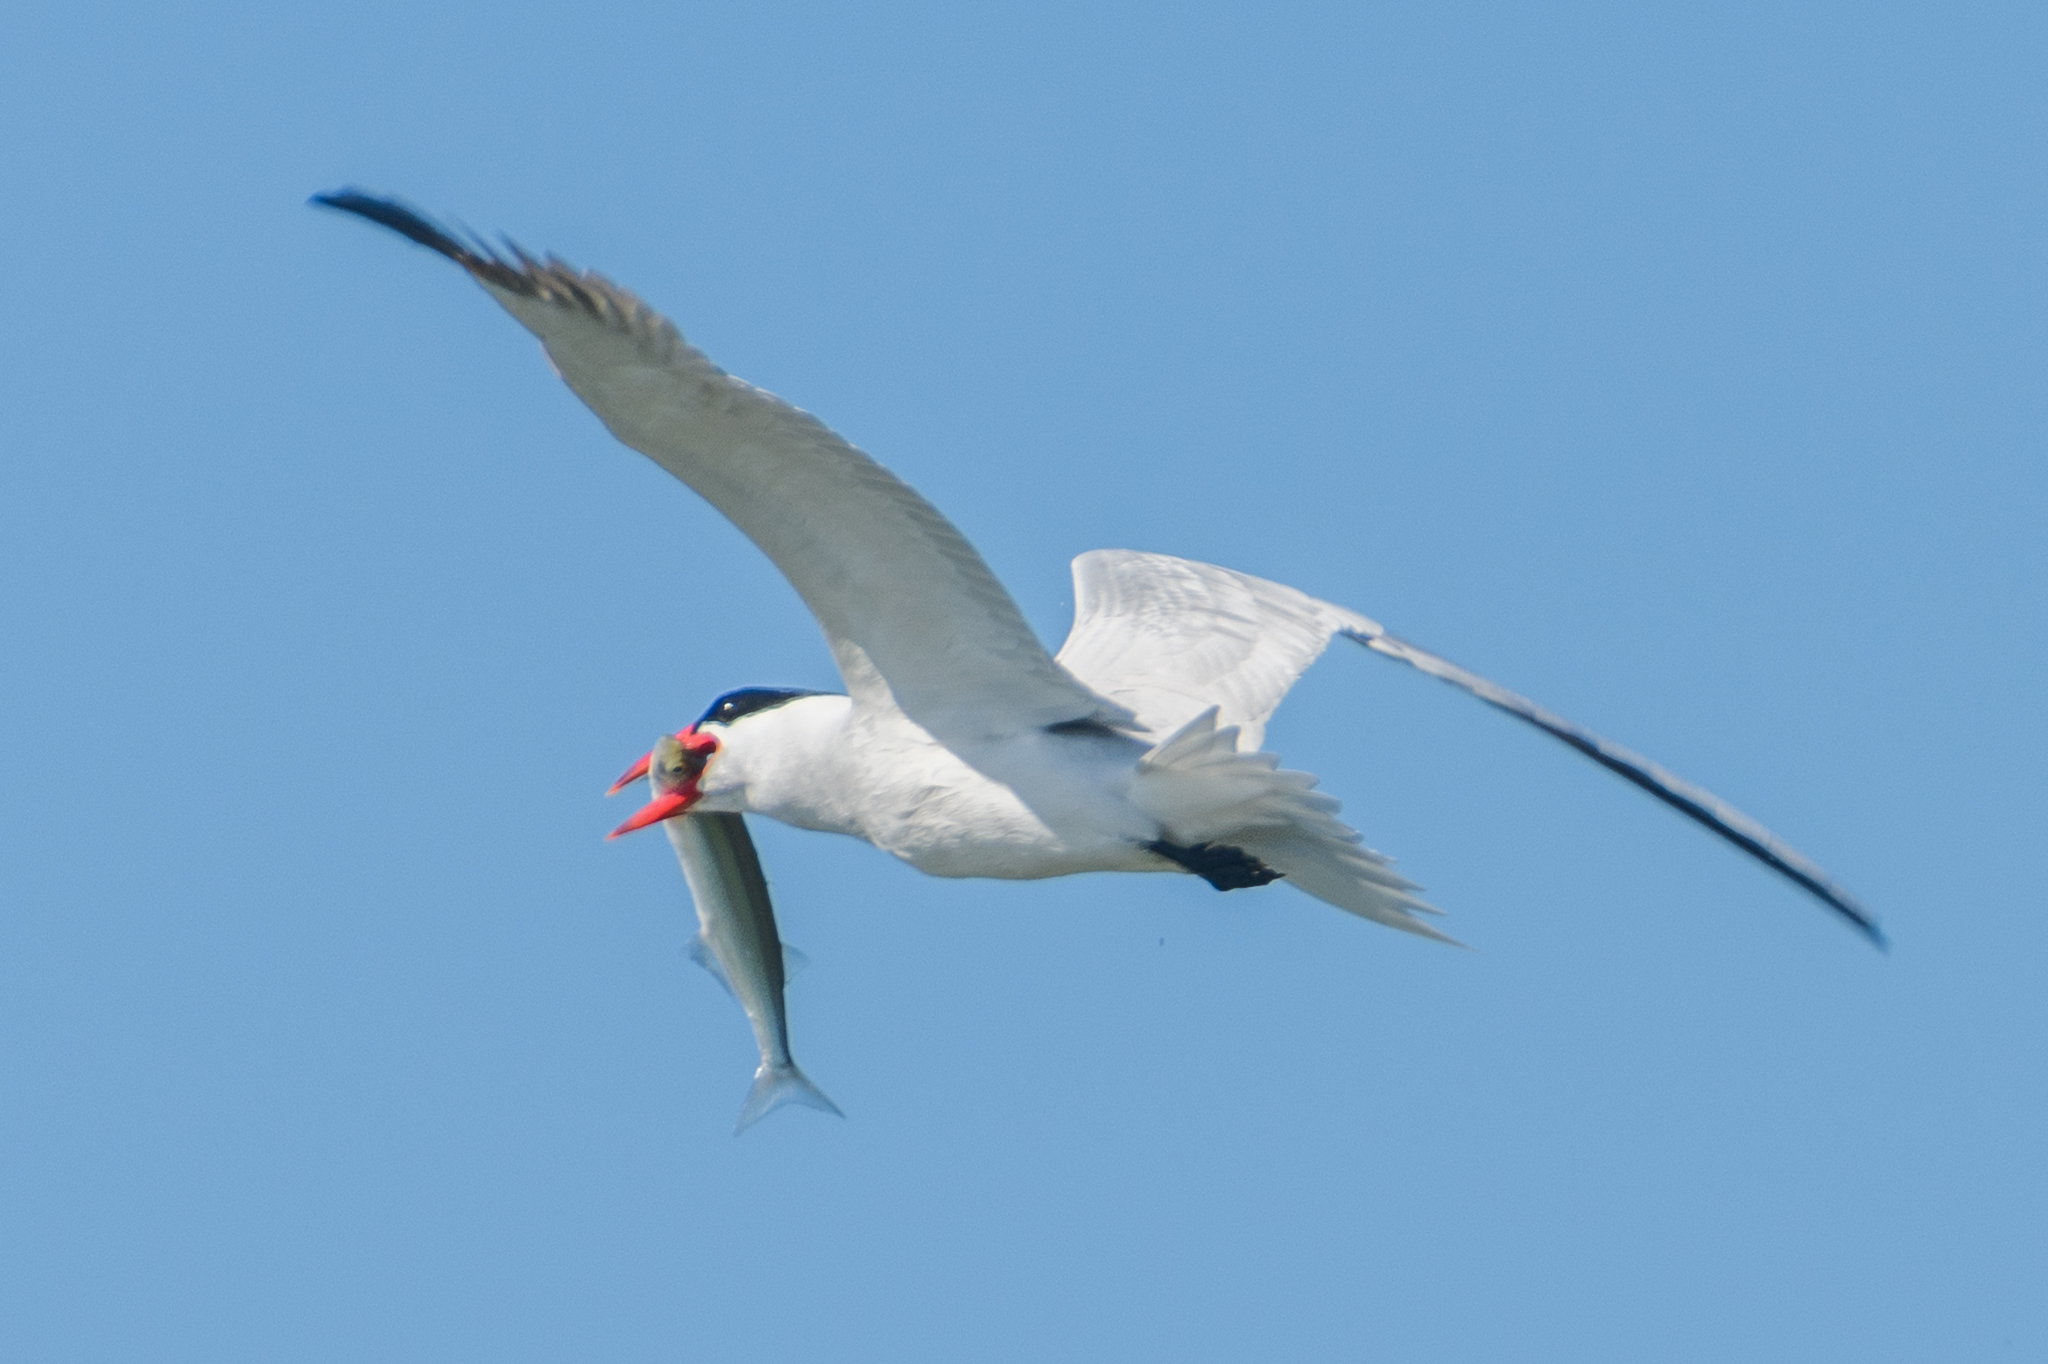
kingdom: Animalia
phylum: Chordata
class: Aves
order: Charadriiformes
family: Laridae
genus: Hydroprogne
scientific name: Hydroprogne caspia
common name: Caspian tern
